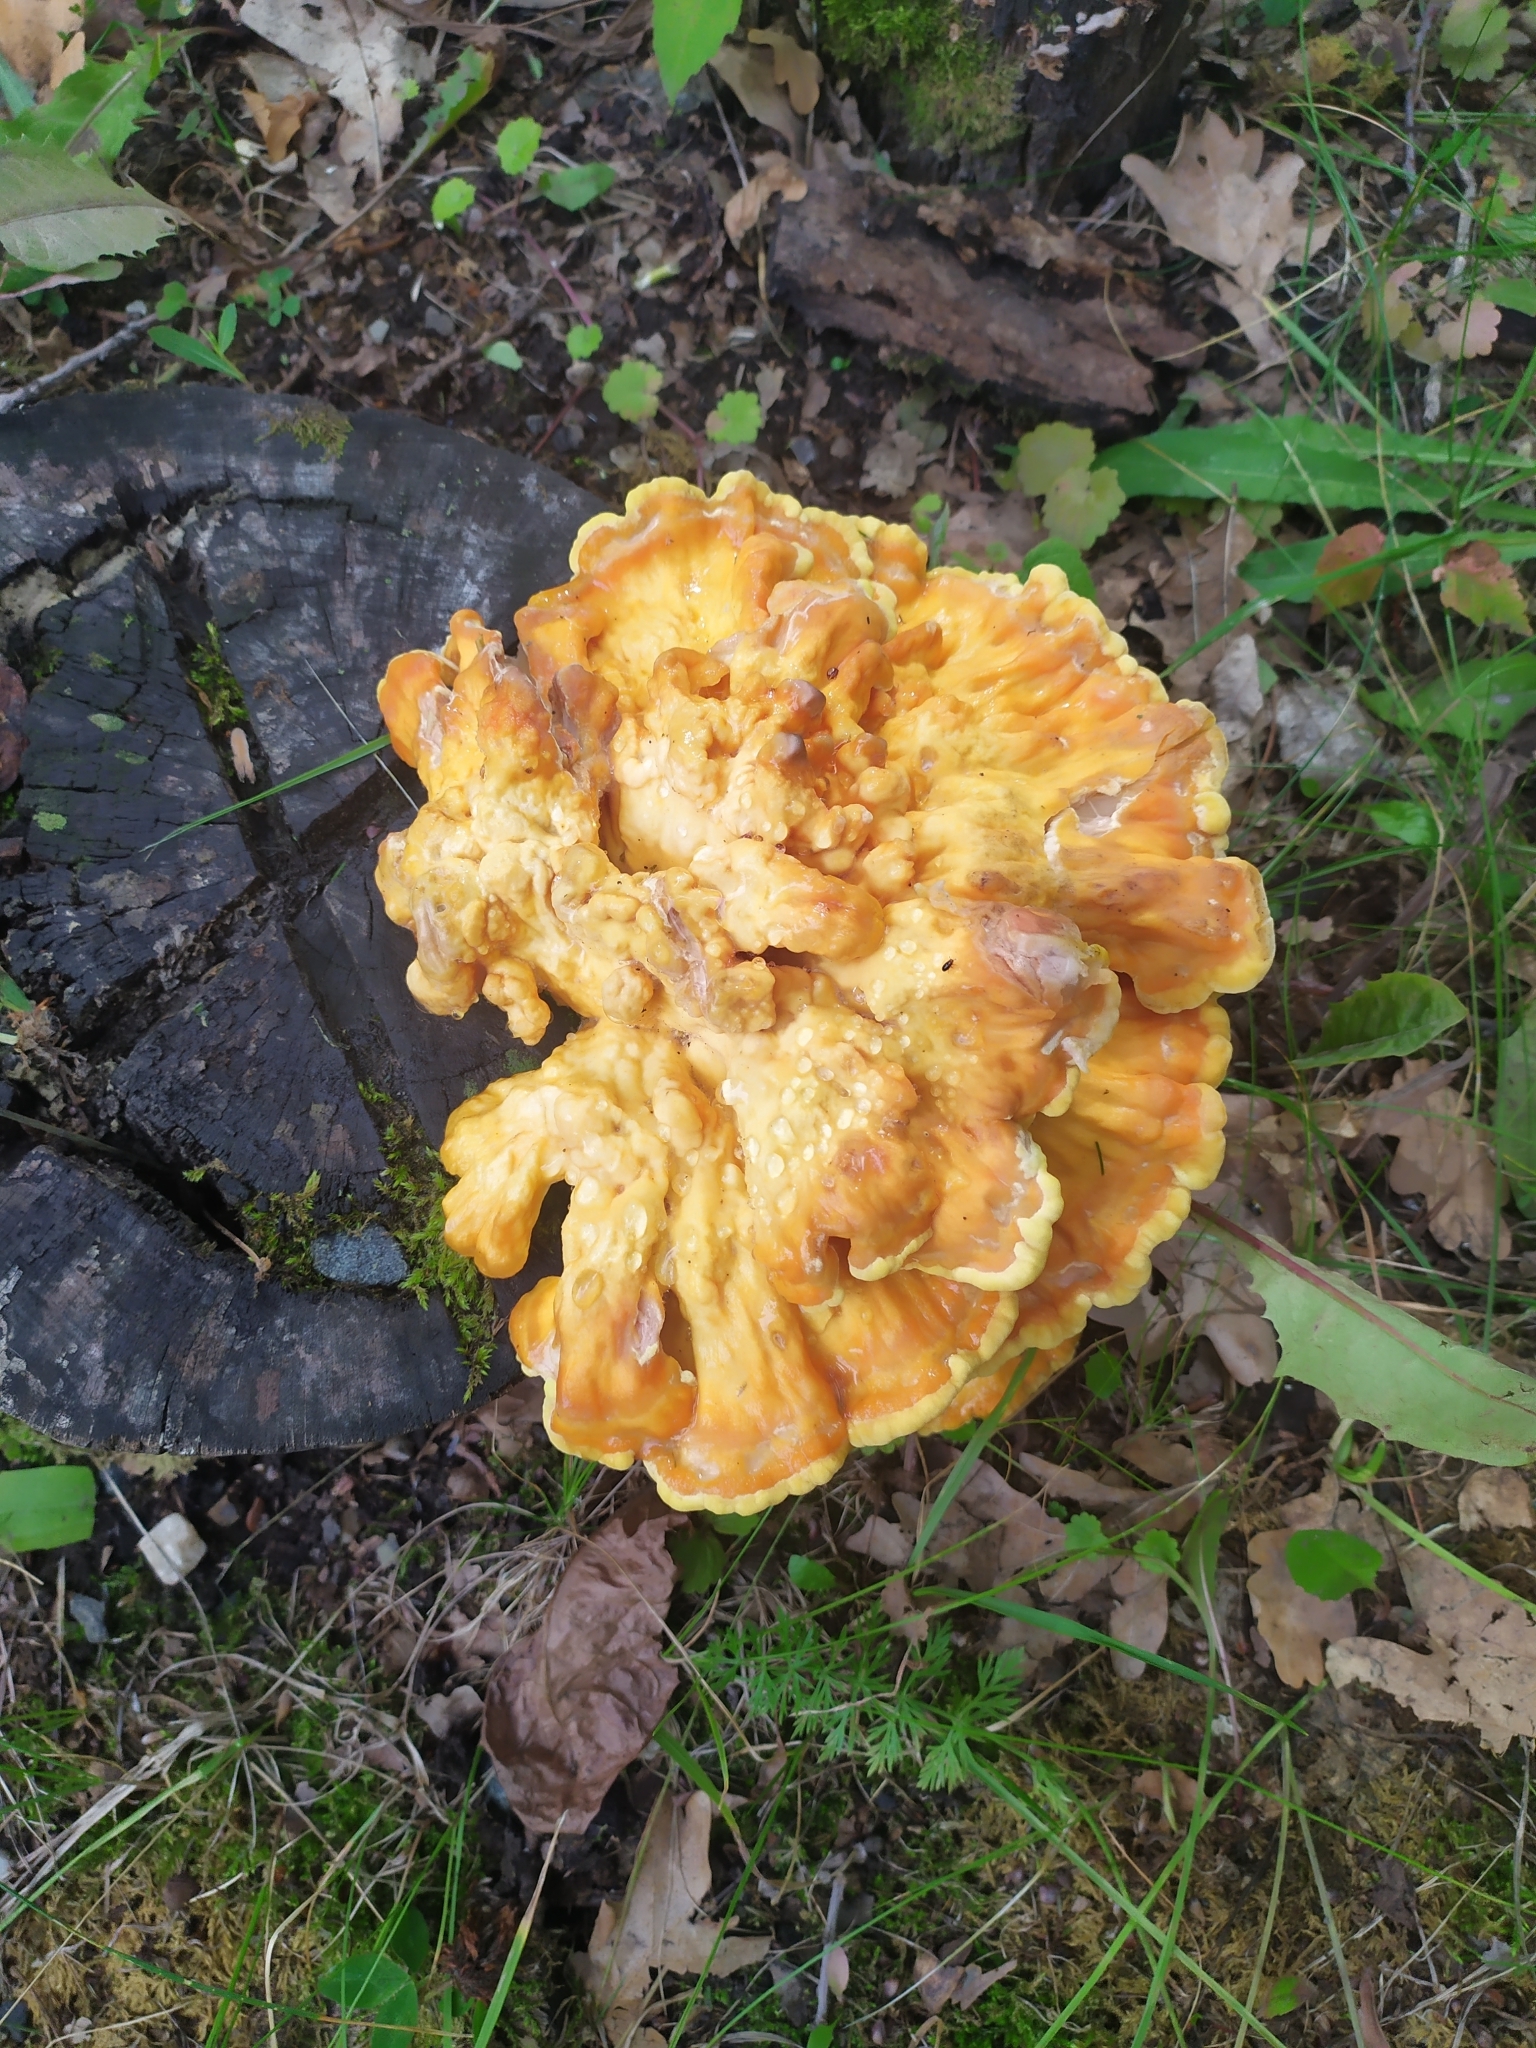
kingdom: Fungi
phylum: Basidiomycota
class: Agaricomycetes
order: Polyporales
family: Laetiporaceae
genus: Laetiporus
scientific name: Laetiporus sulphureus
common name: Chicken of the woods
